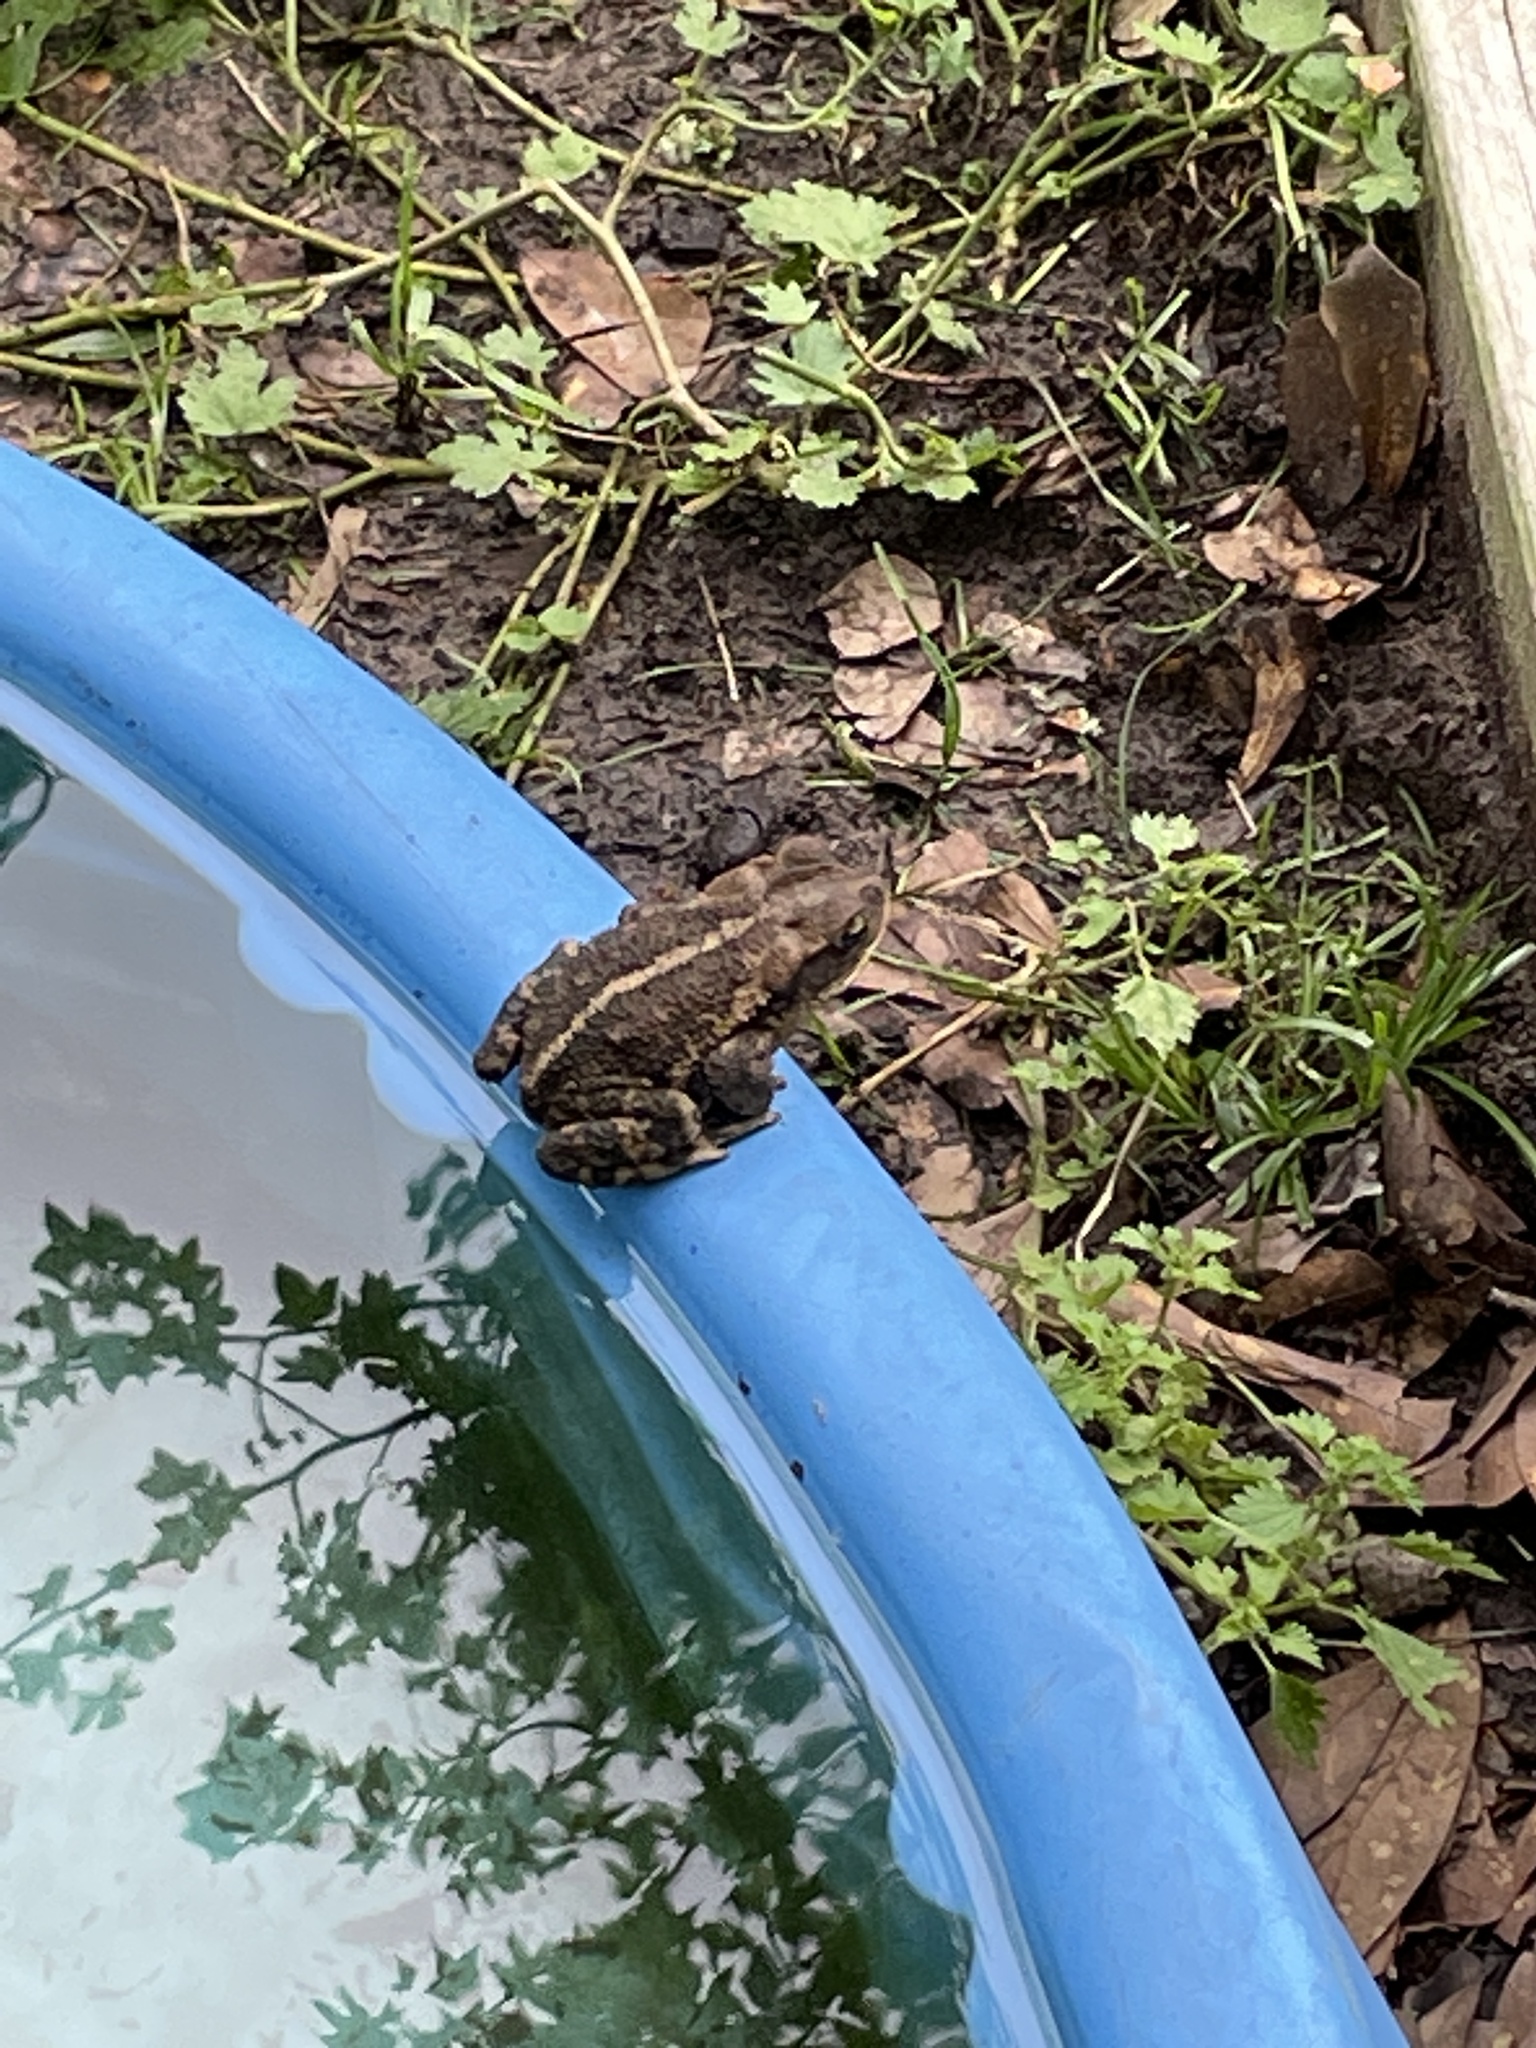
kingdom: Animalia
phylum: Chordata
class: Amphibia
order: Anura
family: Bufonidae
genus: Incilius
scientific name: Incilius nebulifer
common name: Gulf coast toad
